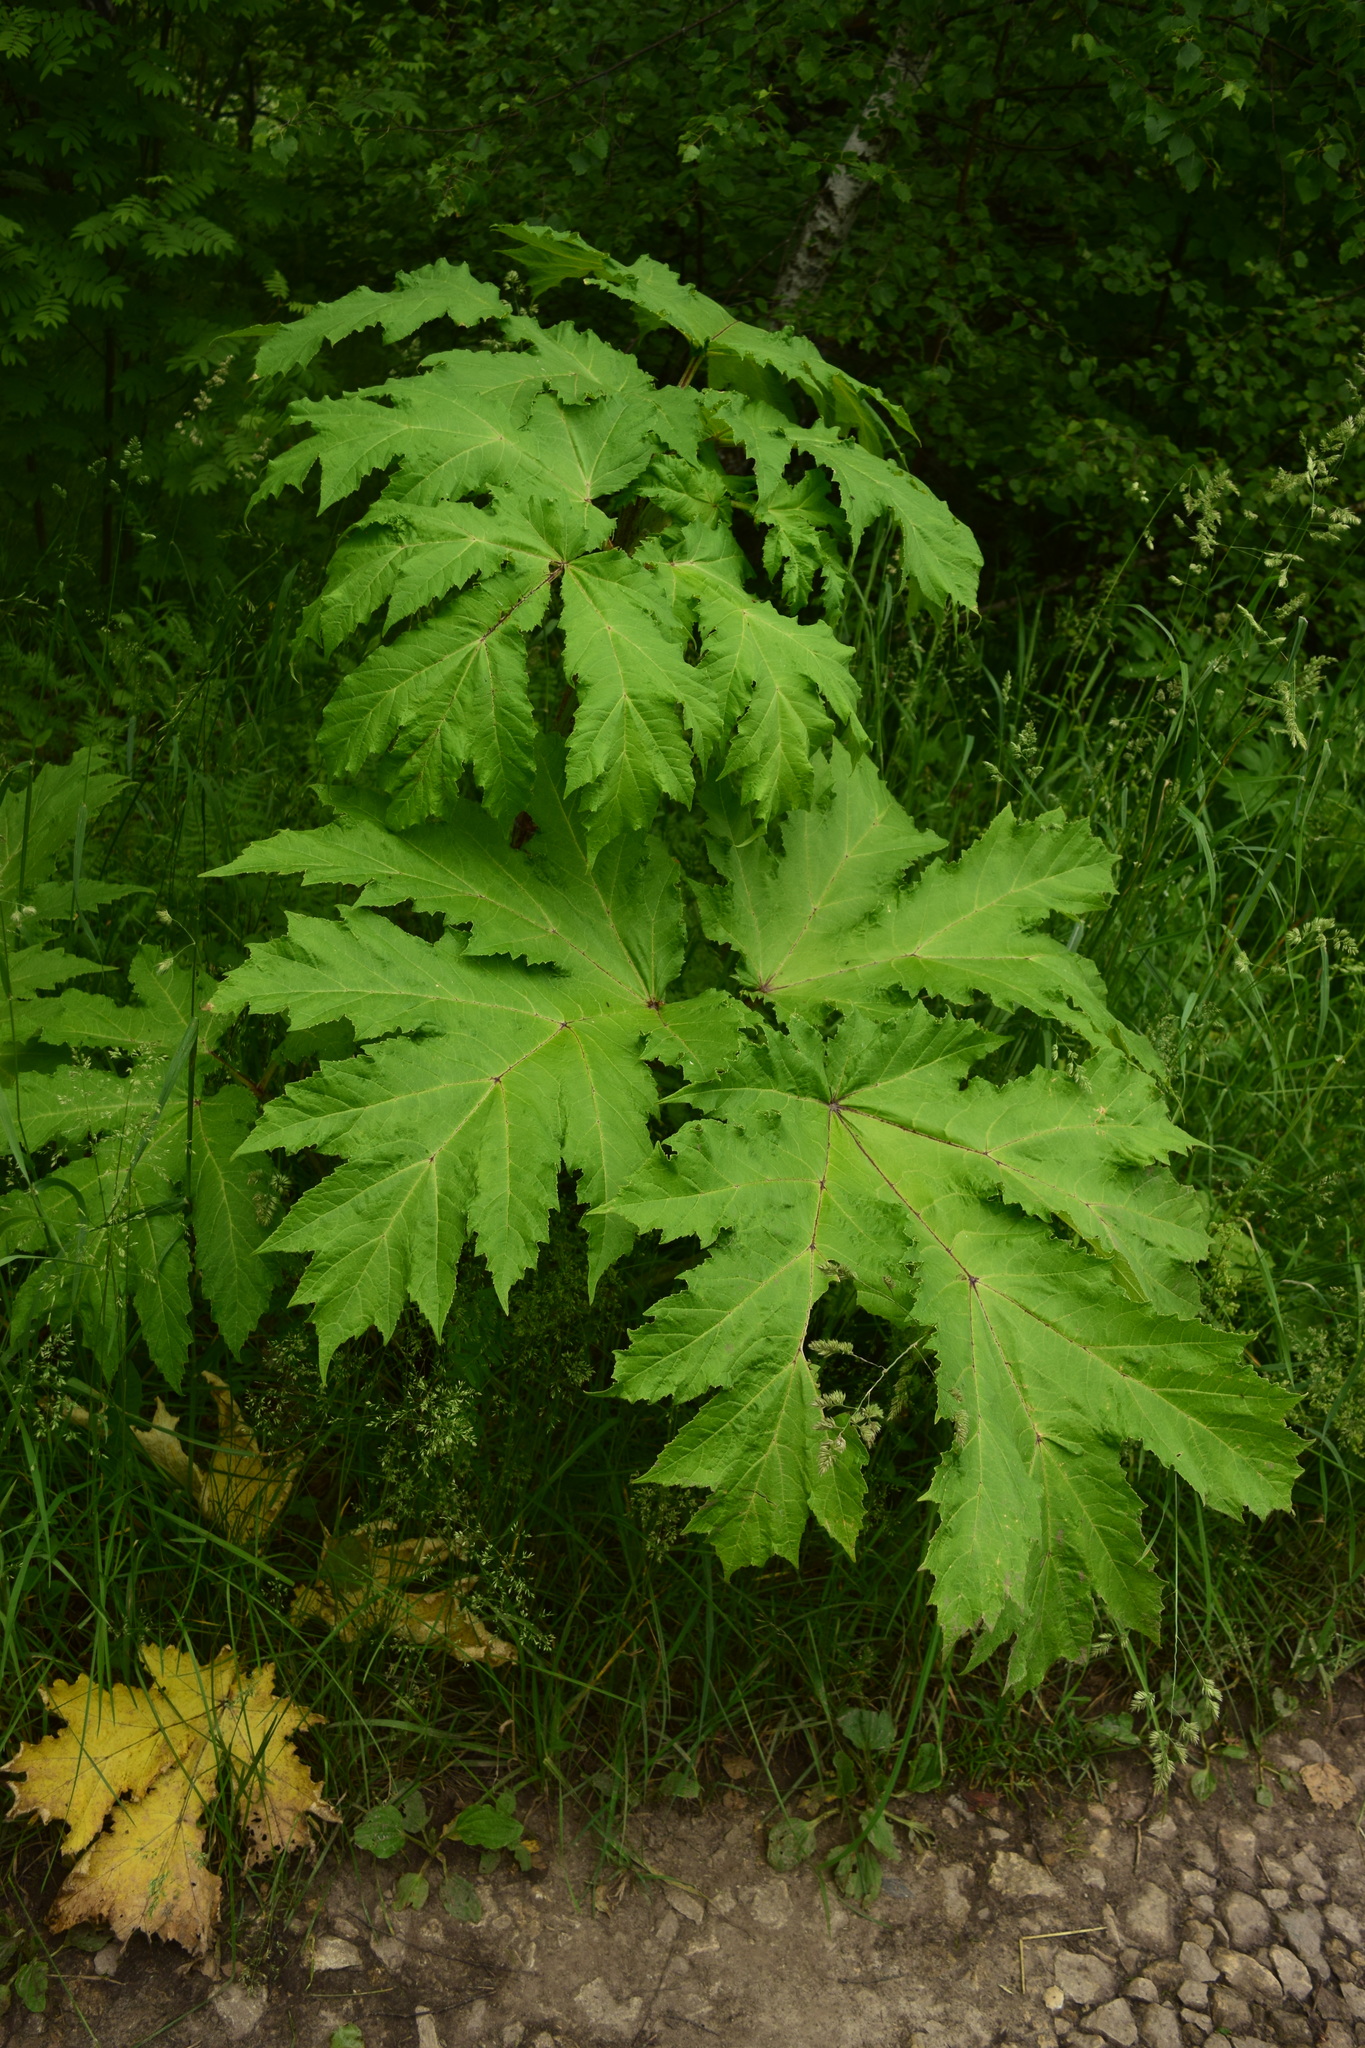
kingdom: Plantae
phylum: Tracheophyta
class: Magnoliopsida
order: Apiales
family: Apiaceae
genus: Heracleum
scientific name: Heracleum sosnowskyi
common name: Sosnowsky's hogweed
